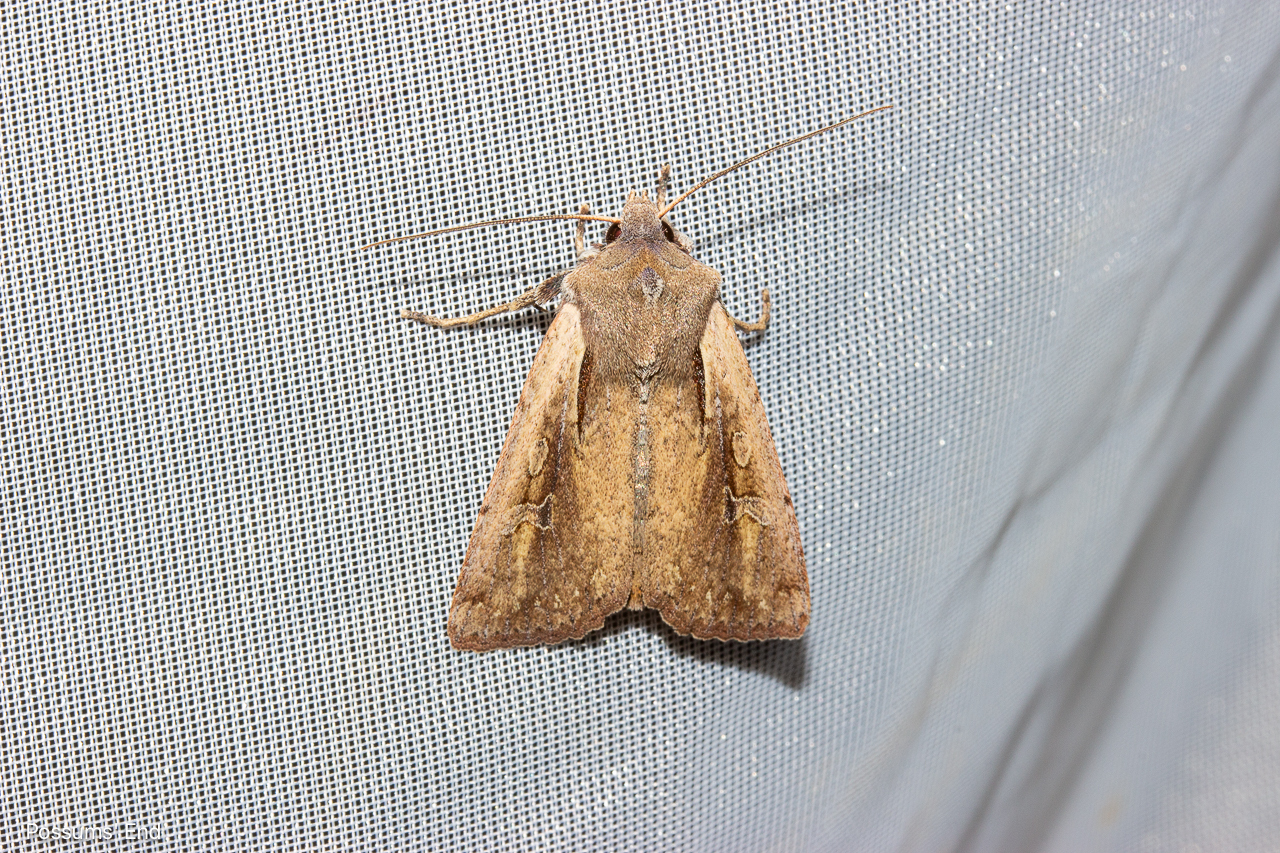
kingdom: Animalia
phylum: Arthropoda
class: Insecta
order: Lepidoptera
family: Noctuidae
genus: Ichneutica
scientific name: Ichneutica atristriga
